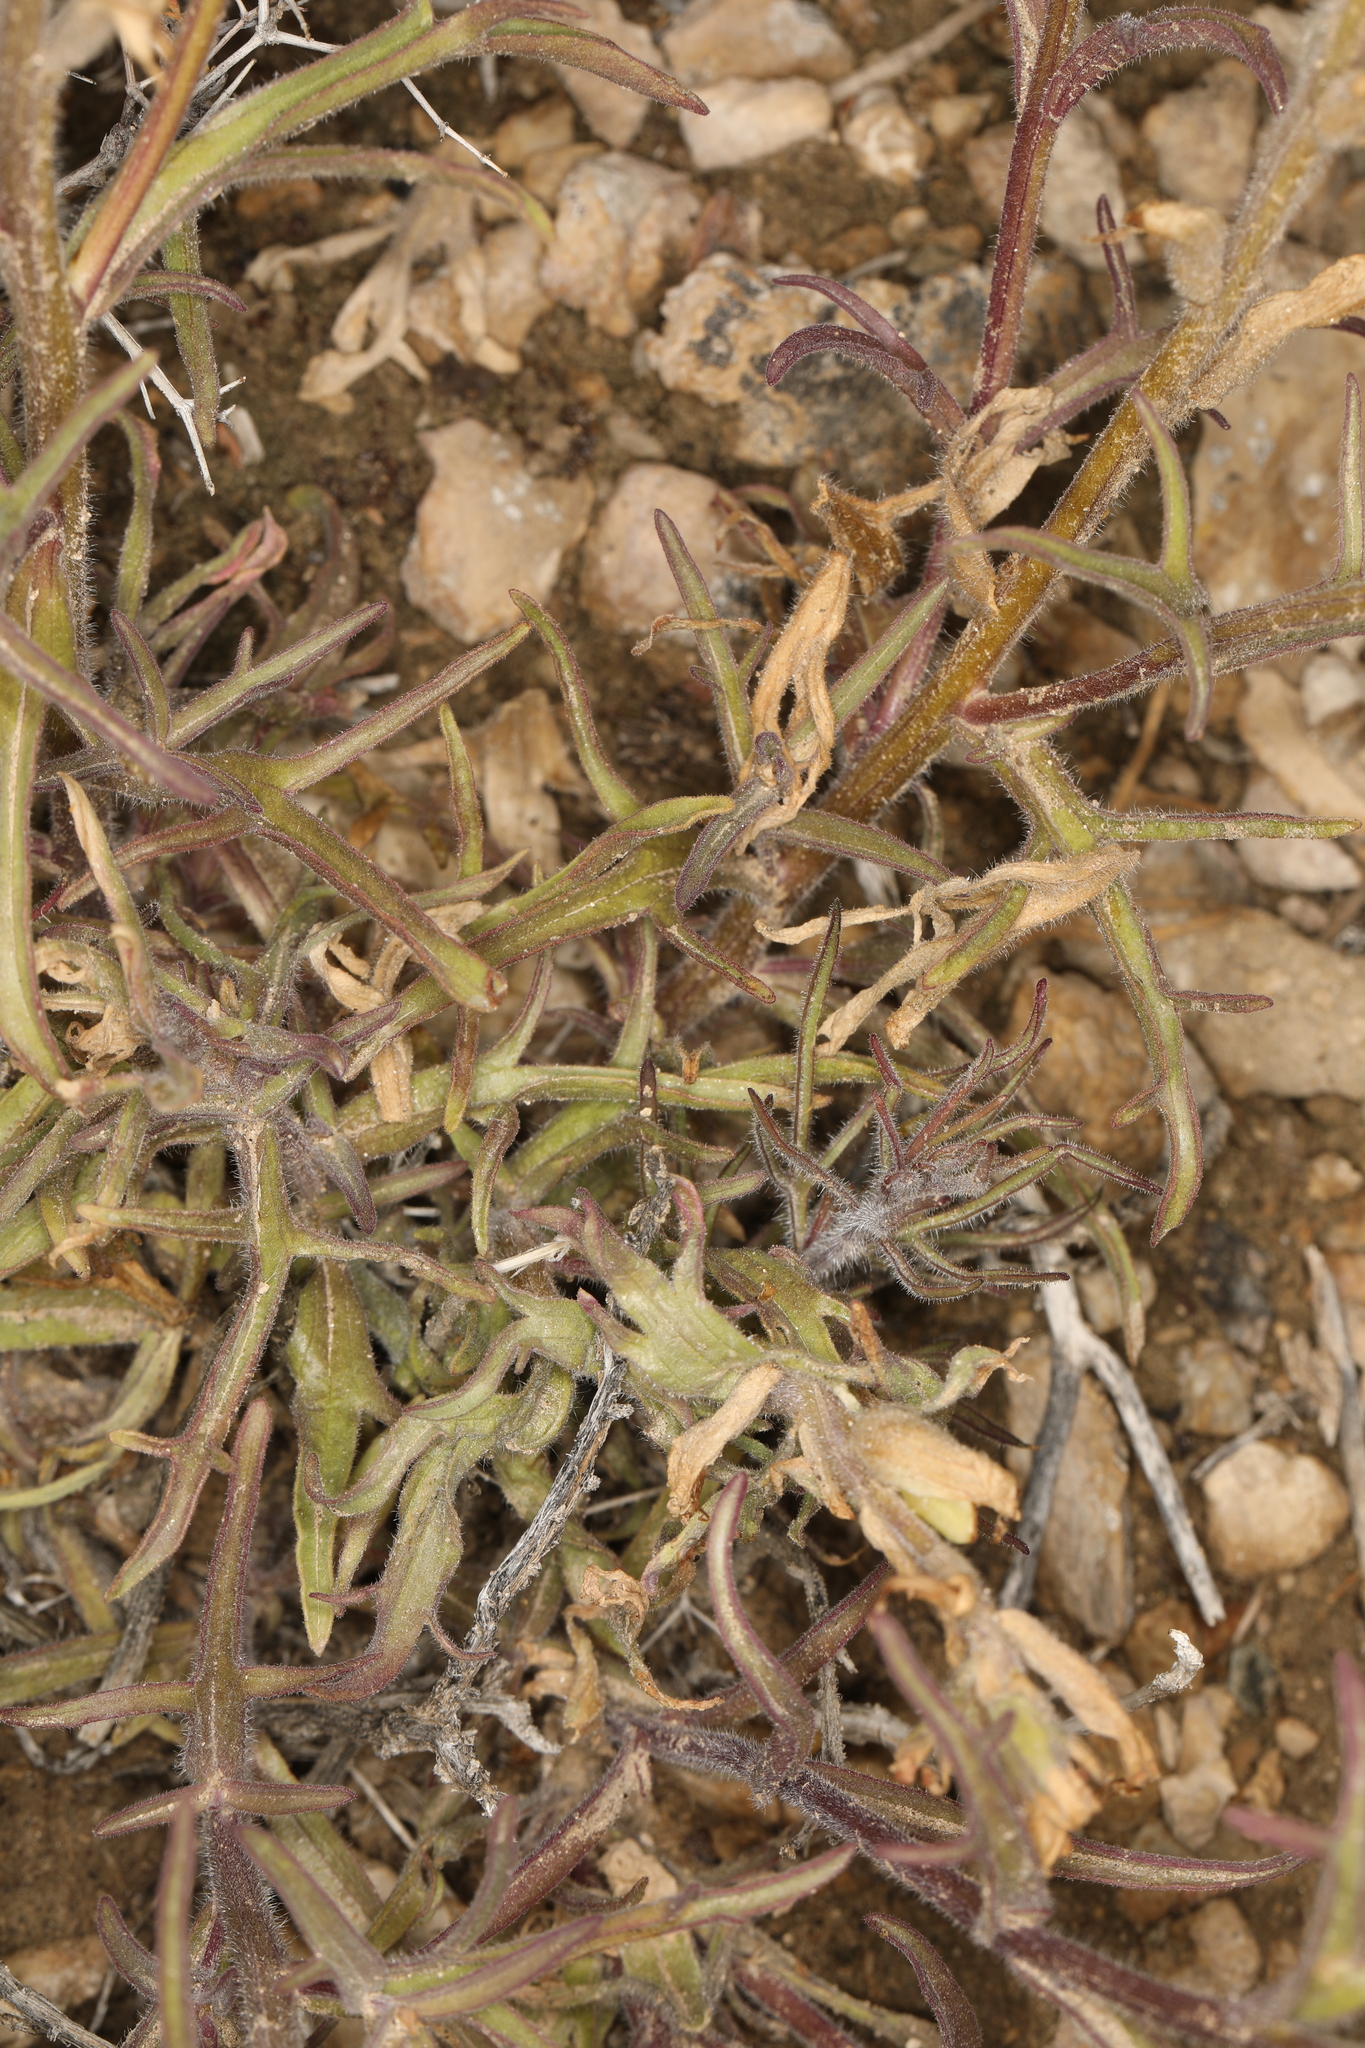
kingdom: Plantae
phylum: Tracheophyta
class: Magnoliopsida
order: Lamiales
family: Orobanchaceae
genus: Castilleja
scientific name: Castilleja chromosa
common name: Desert paintbrush
